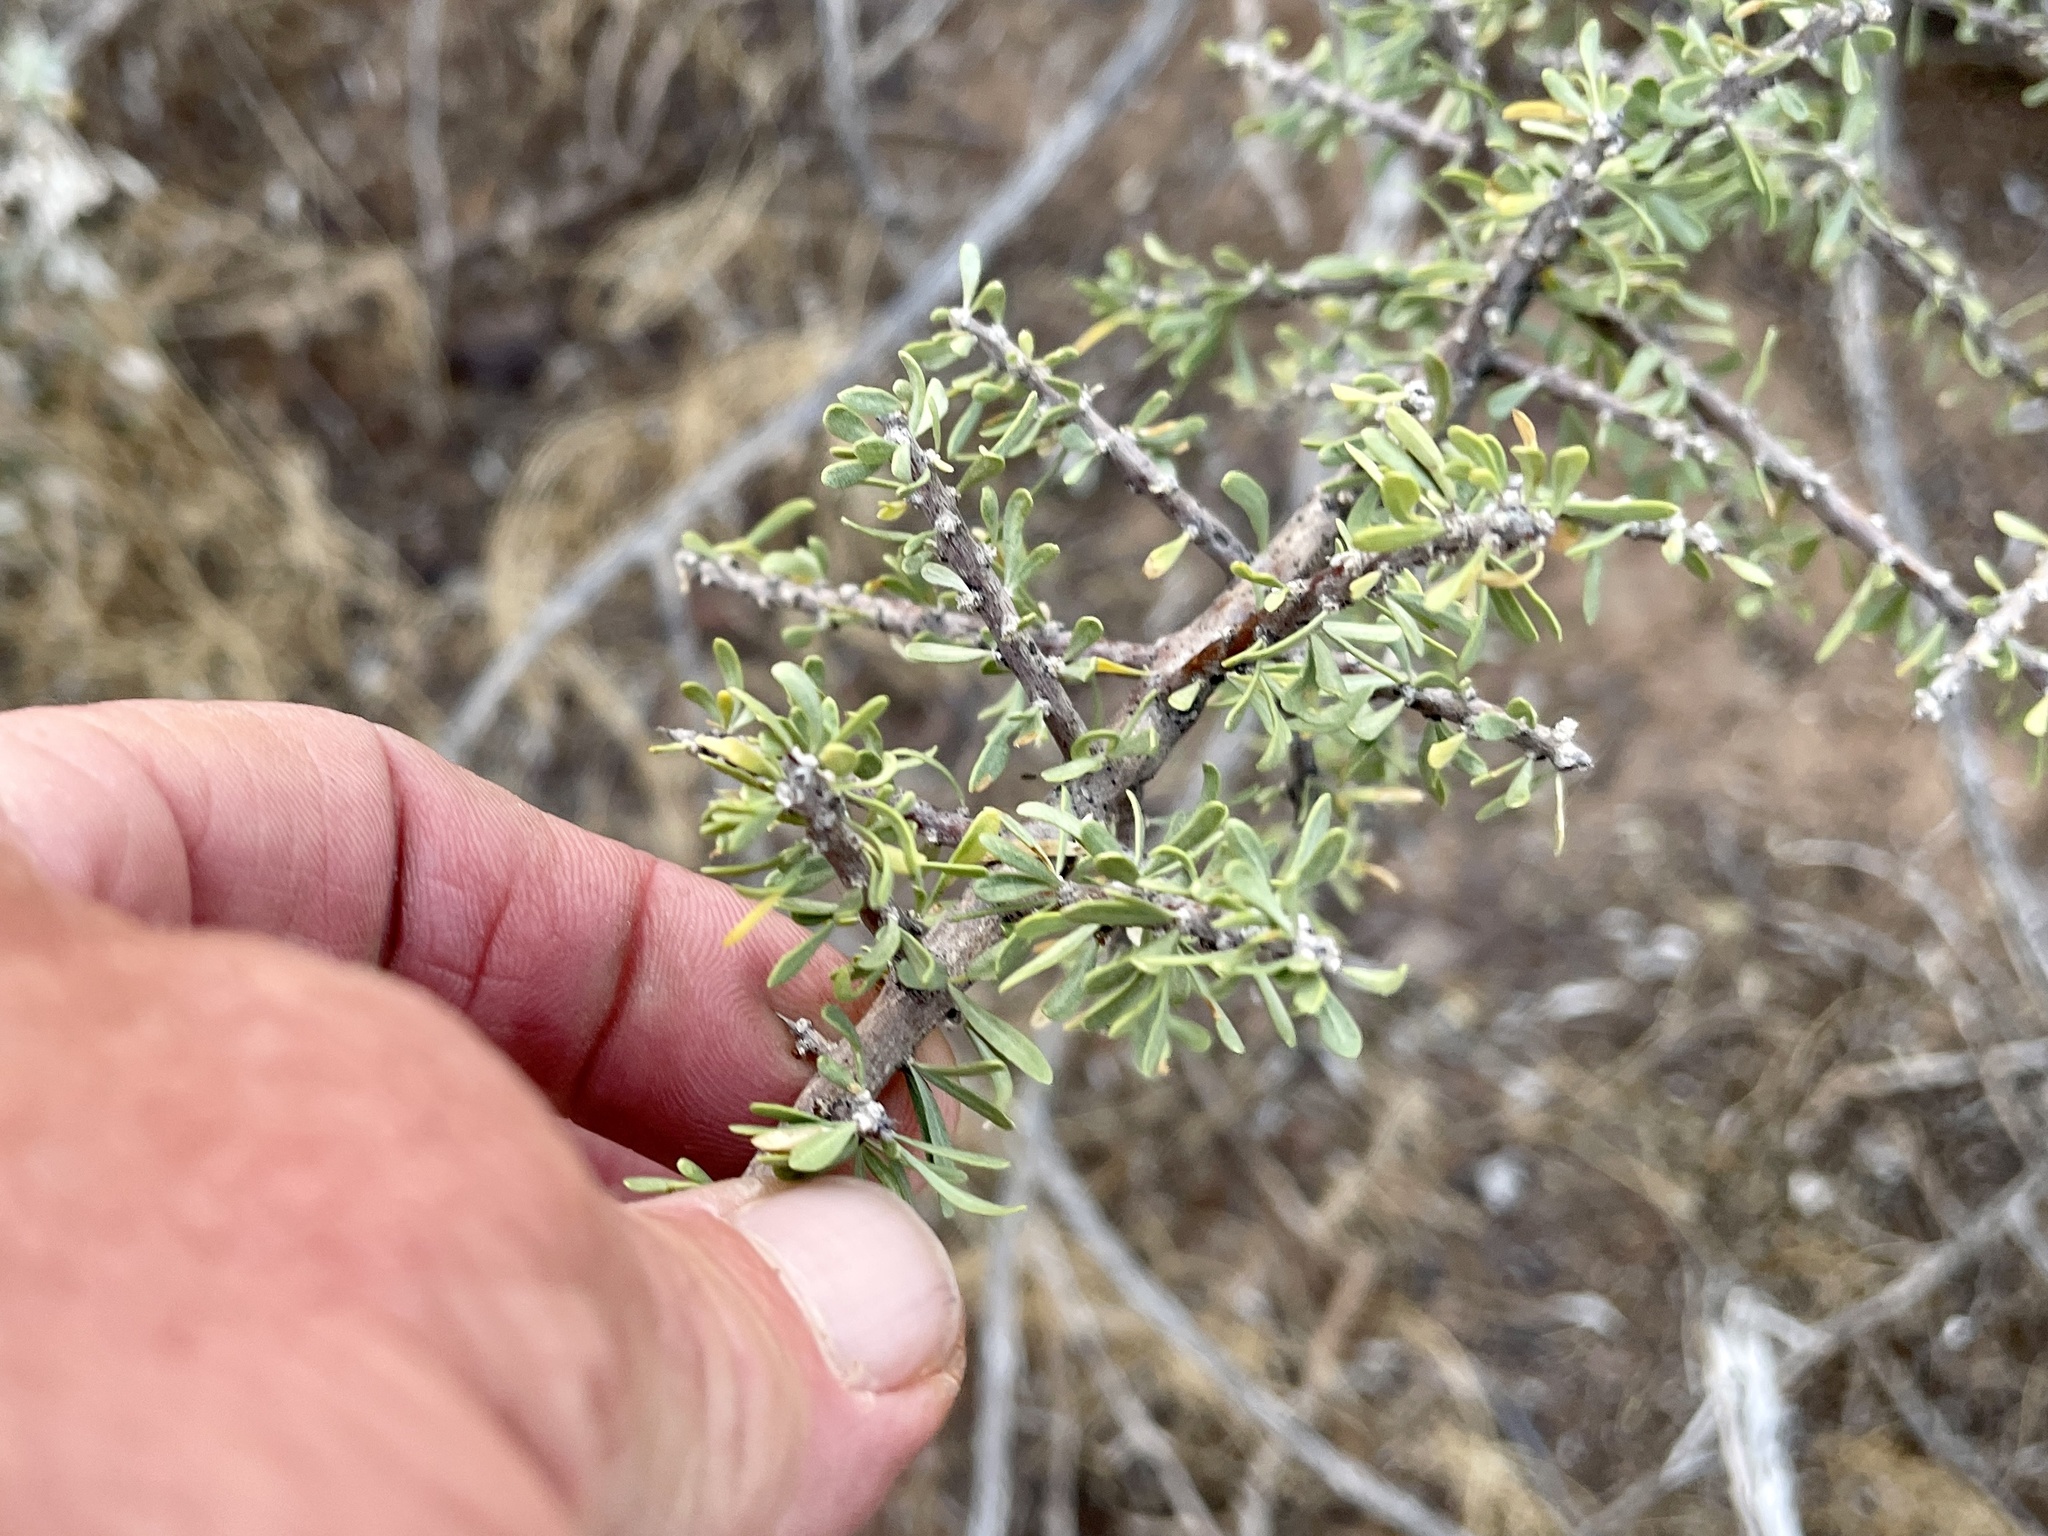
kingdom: Plantae
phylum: Tracheophyta
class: Magnoliopsida
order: Solanales
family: Solanaceae
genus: Lycium
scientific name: Lycium berlandieri
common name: Berlandier wolfberry
